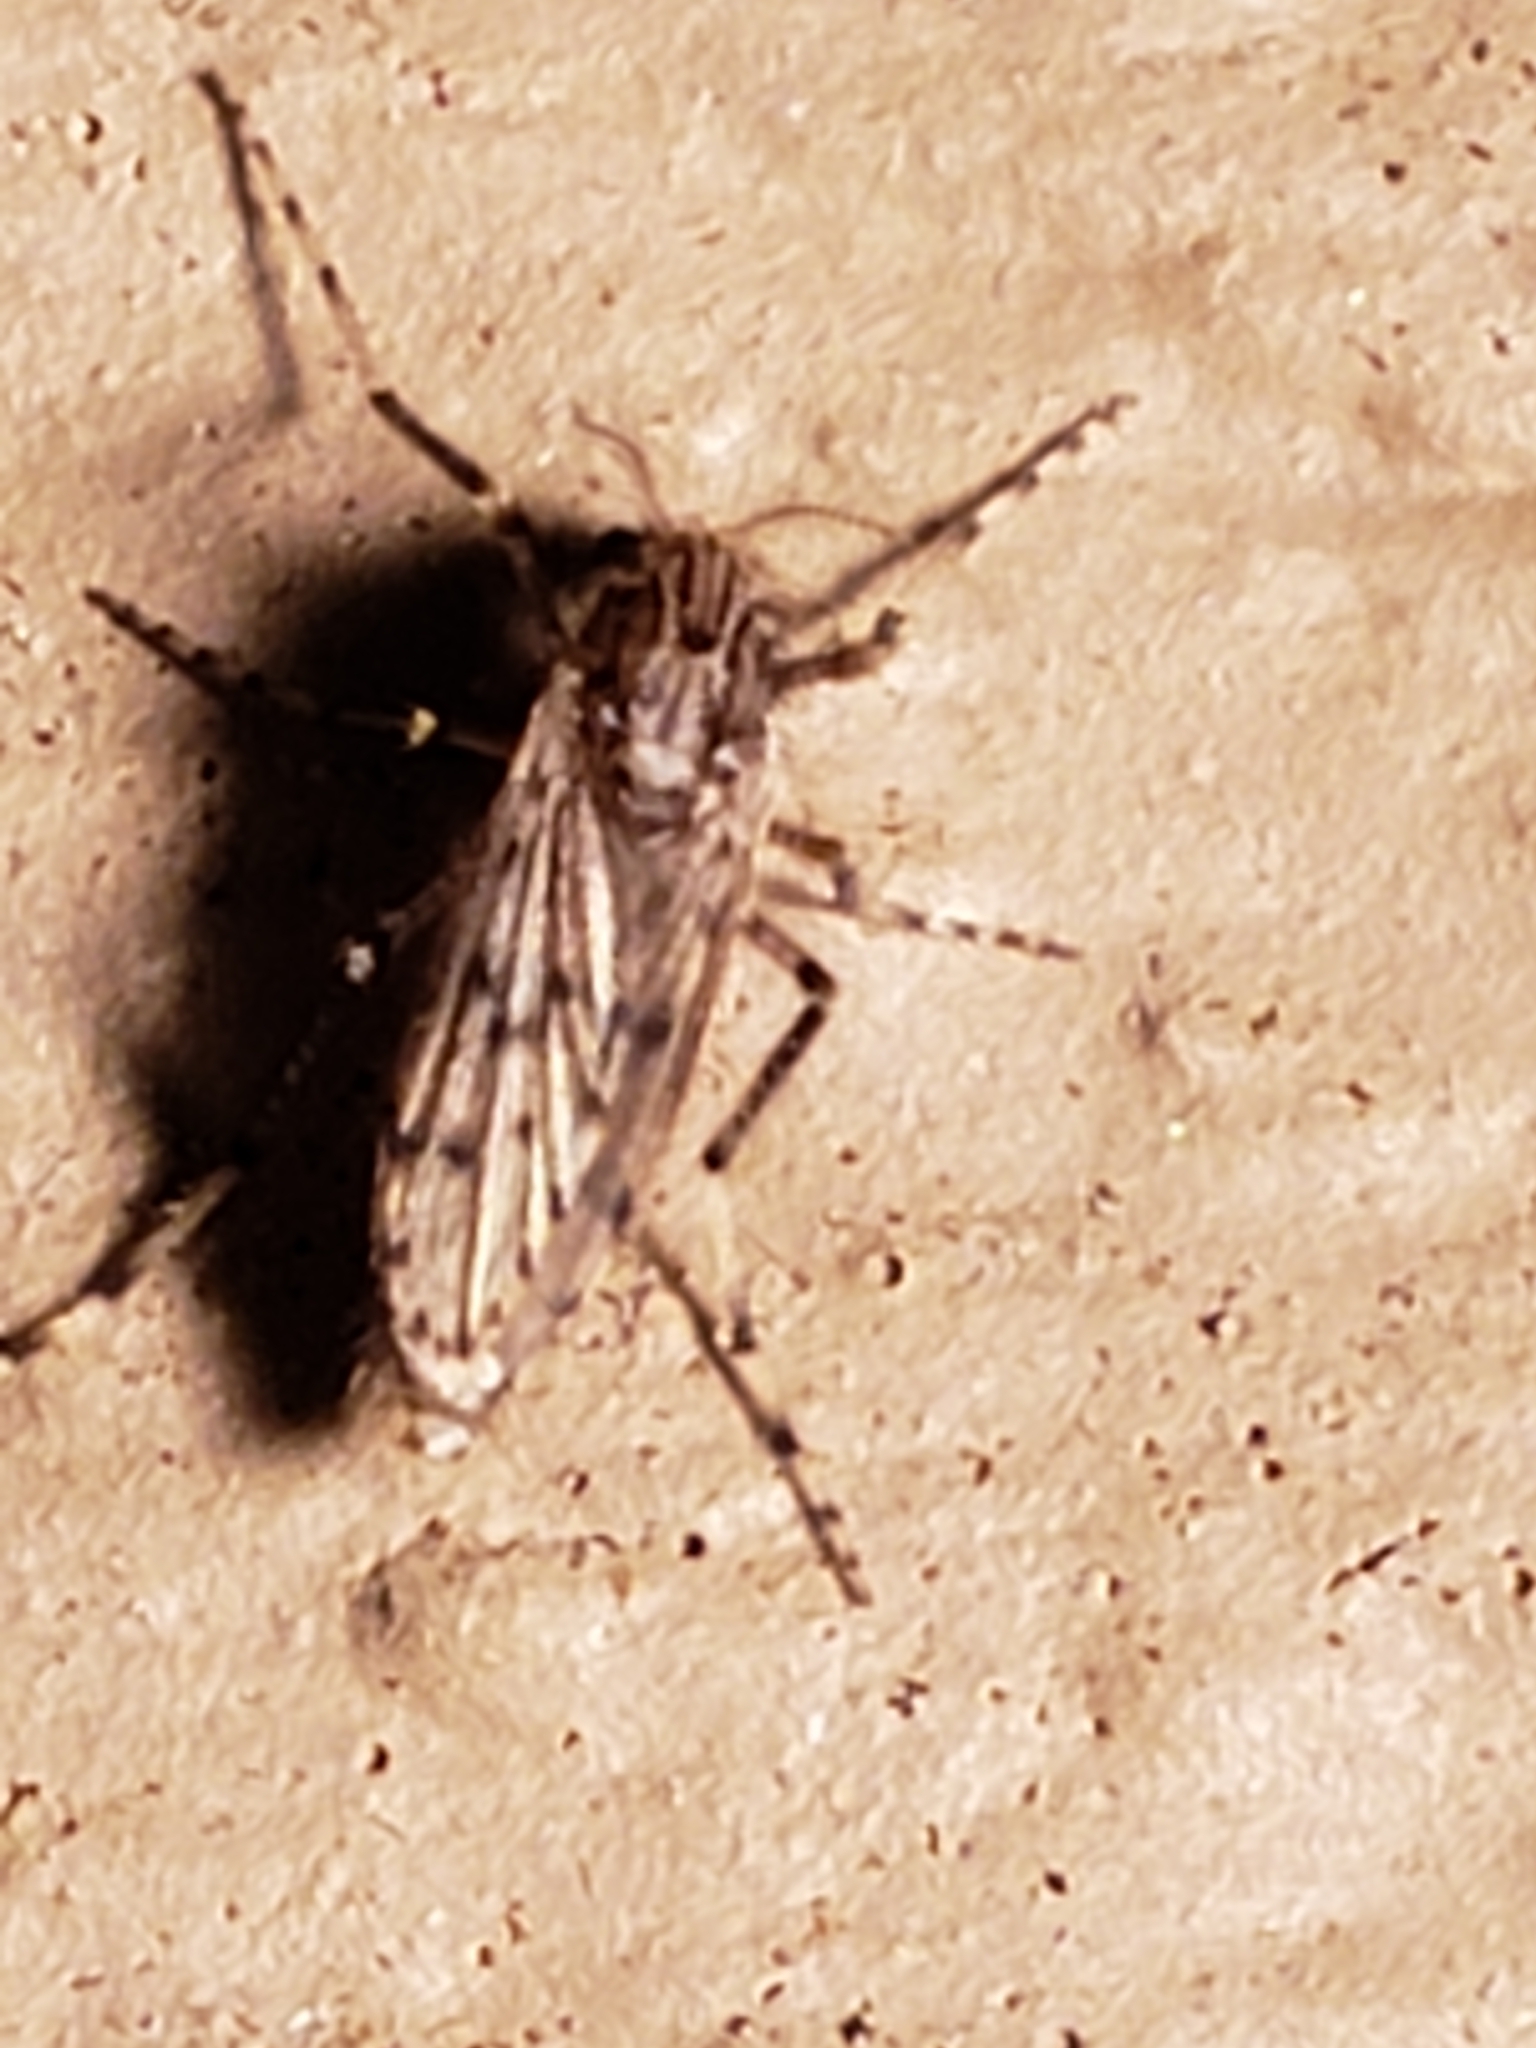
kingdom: Animalia
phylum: Arthropoda
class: Insecta
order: Diptera
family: Chaoboridae
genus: Chaoborus
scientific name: Chaoborus punctipennis
